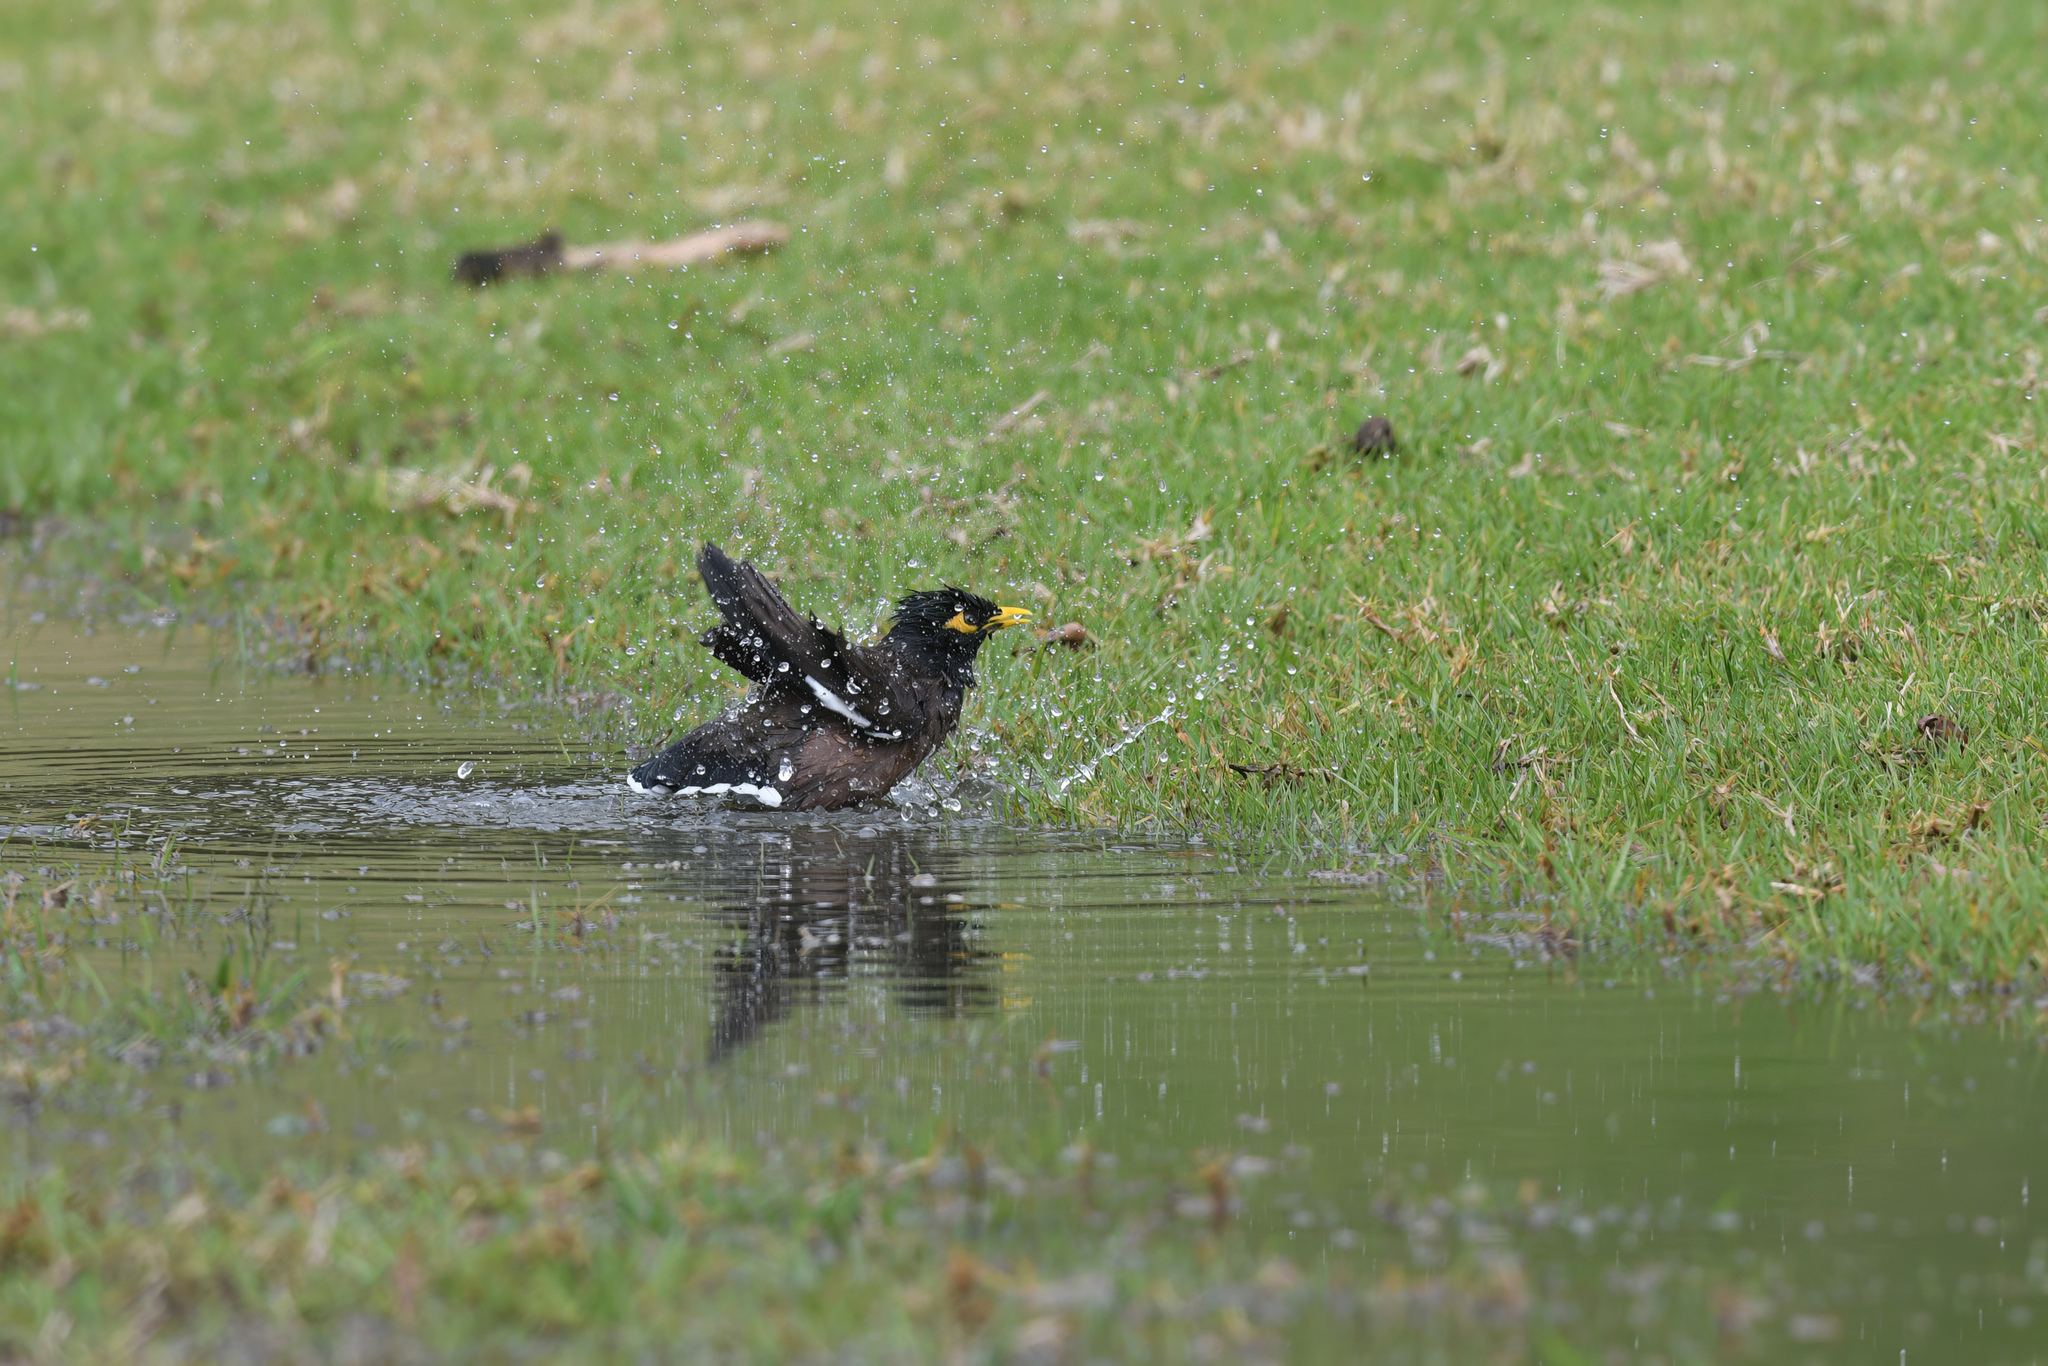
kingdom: Animalia
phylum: Chordata
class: Aves
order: Passeriformes
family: Sturnidae
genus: Acridotheres
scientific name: Acridotheres tristis
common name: Common myna
